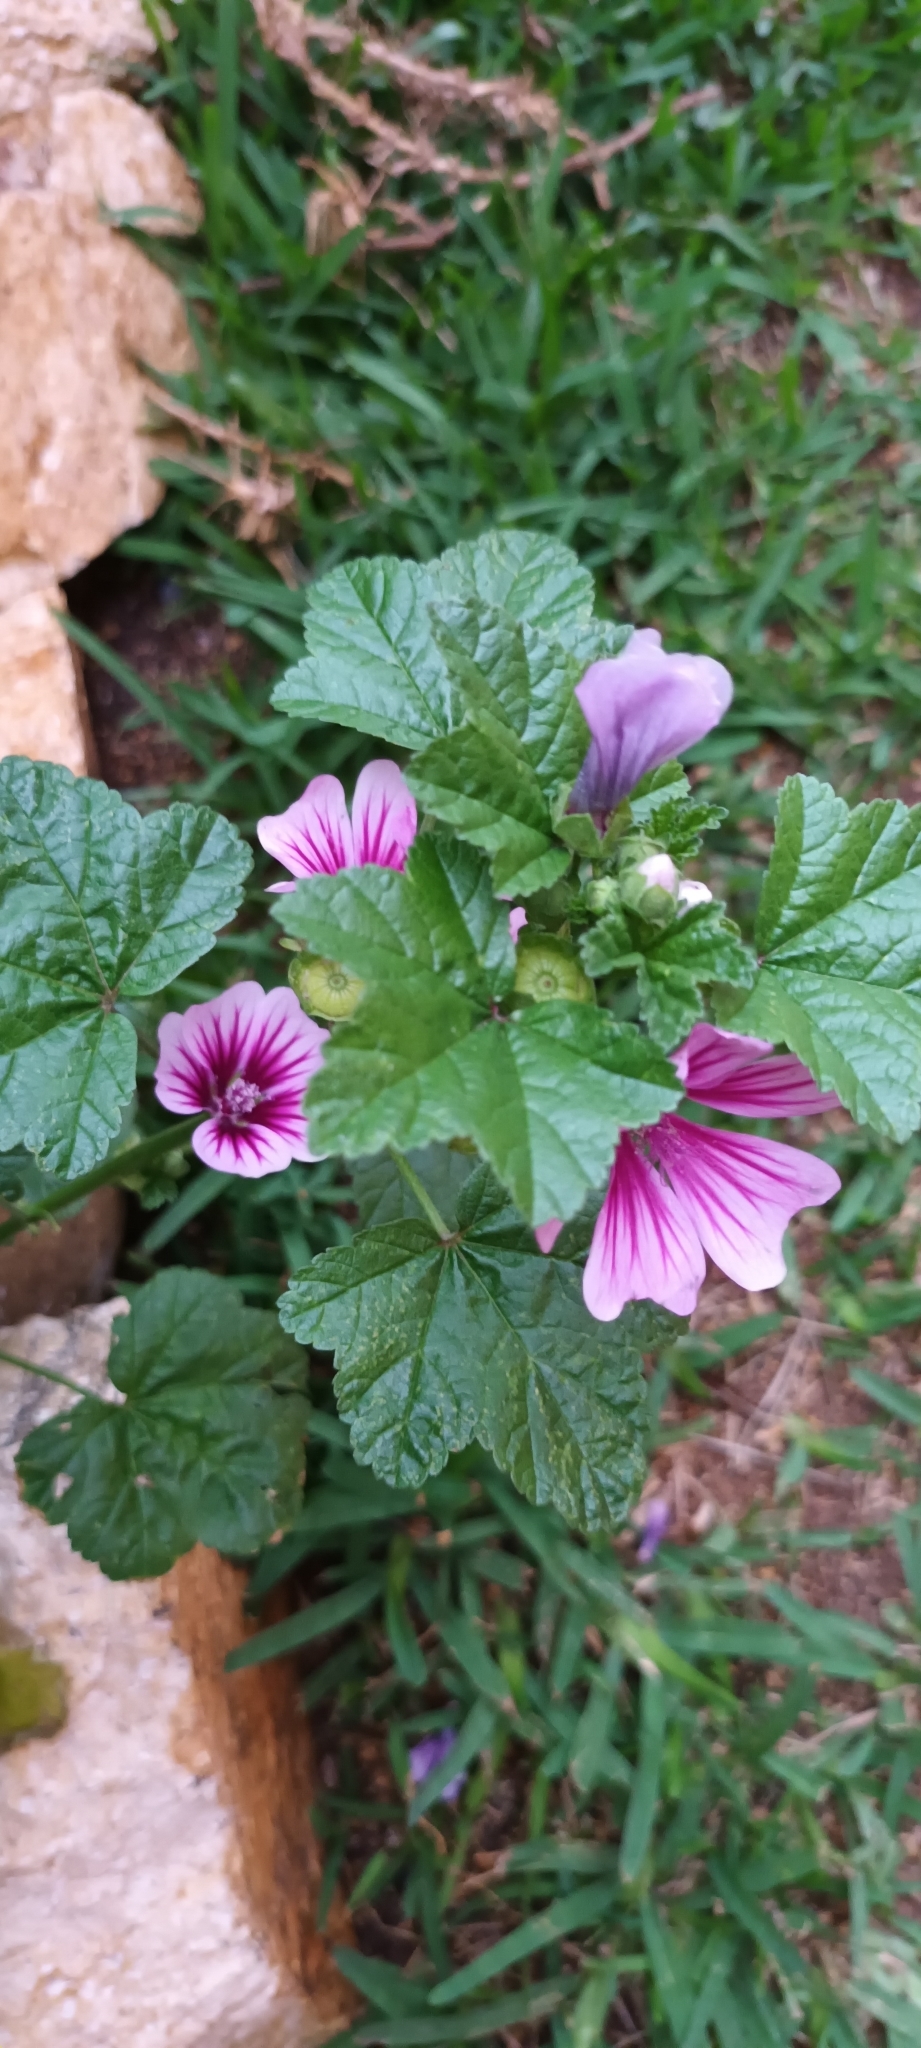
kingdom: Plantae
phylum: Tracheophyta
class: Magnoliopsida
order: Malvales
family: Malvaceae
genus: Malva
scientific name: Malva sylvestris
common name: Common mallow
